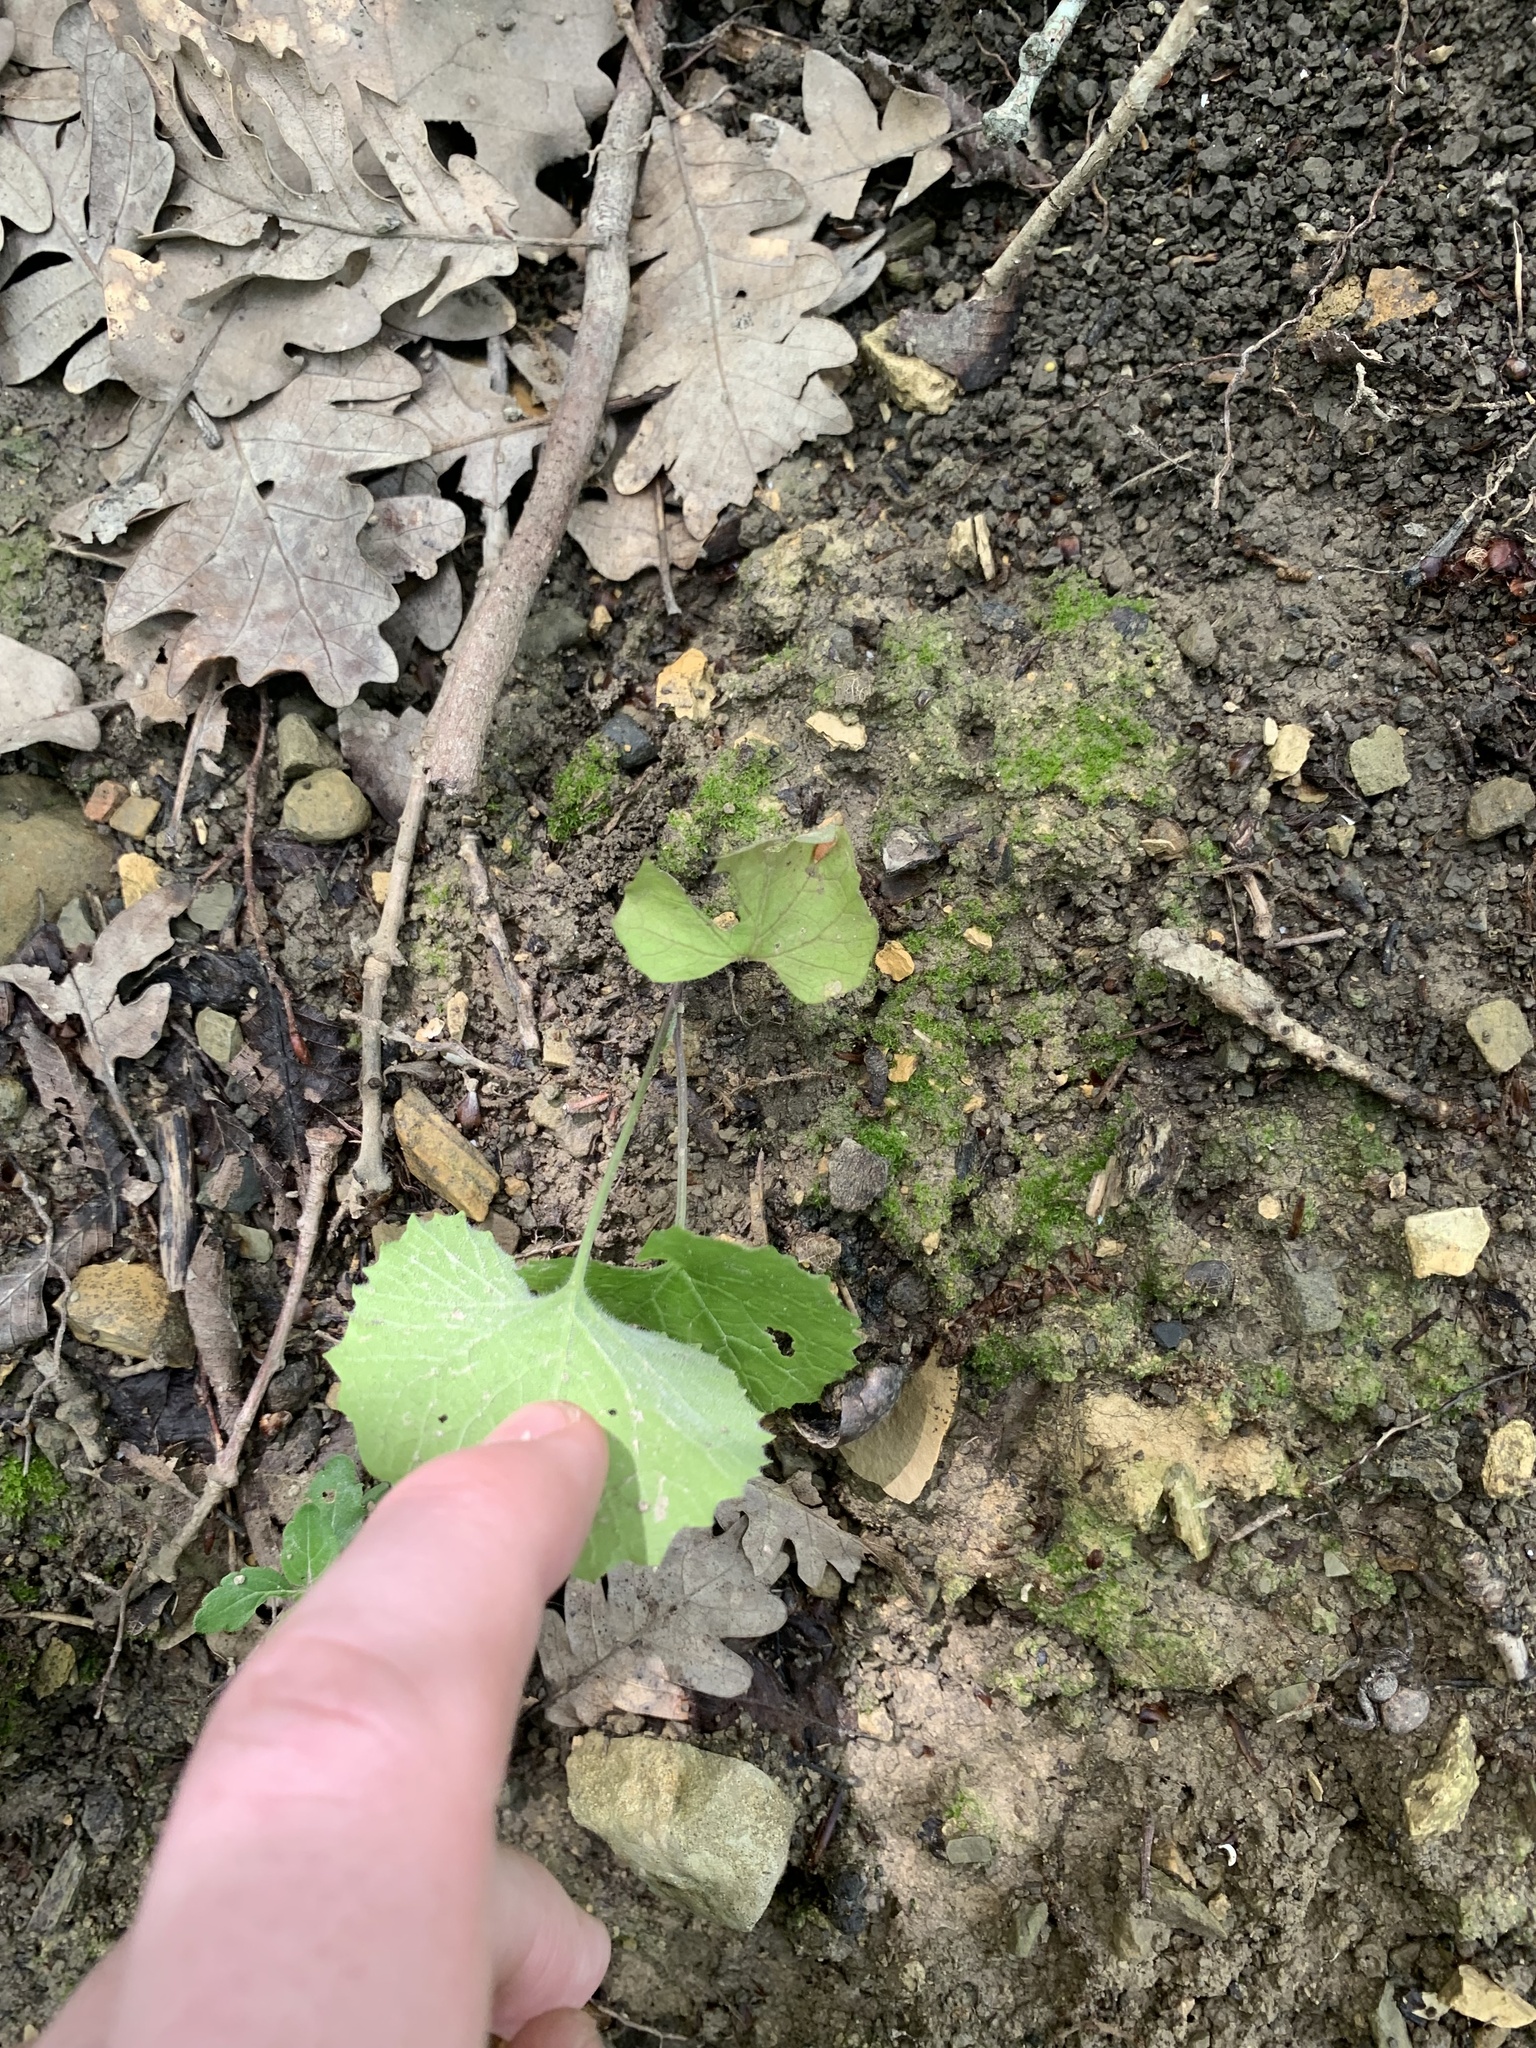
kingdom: Plantae
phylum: Tracheophyta
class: Magnoliopsida
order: Brassicales
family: Brassicaceae
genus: Alliaria
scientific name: Alliaria petiolata
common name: Garlic mustard
